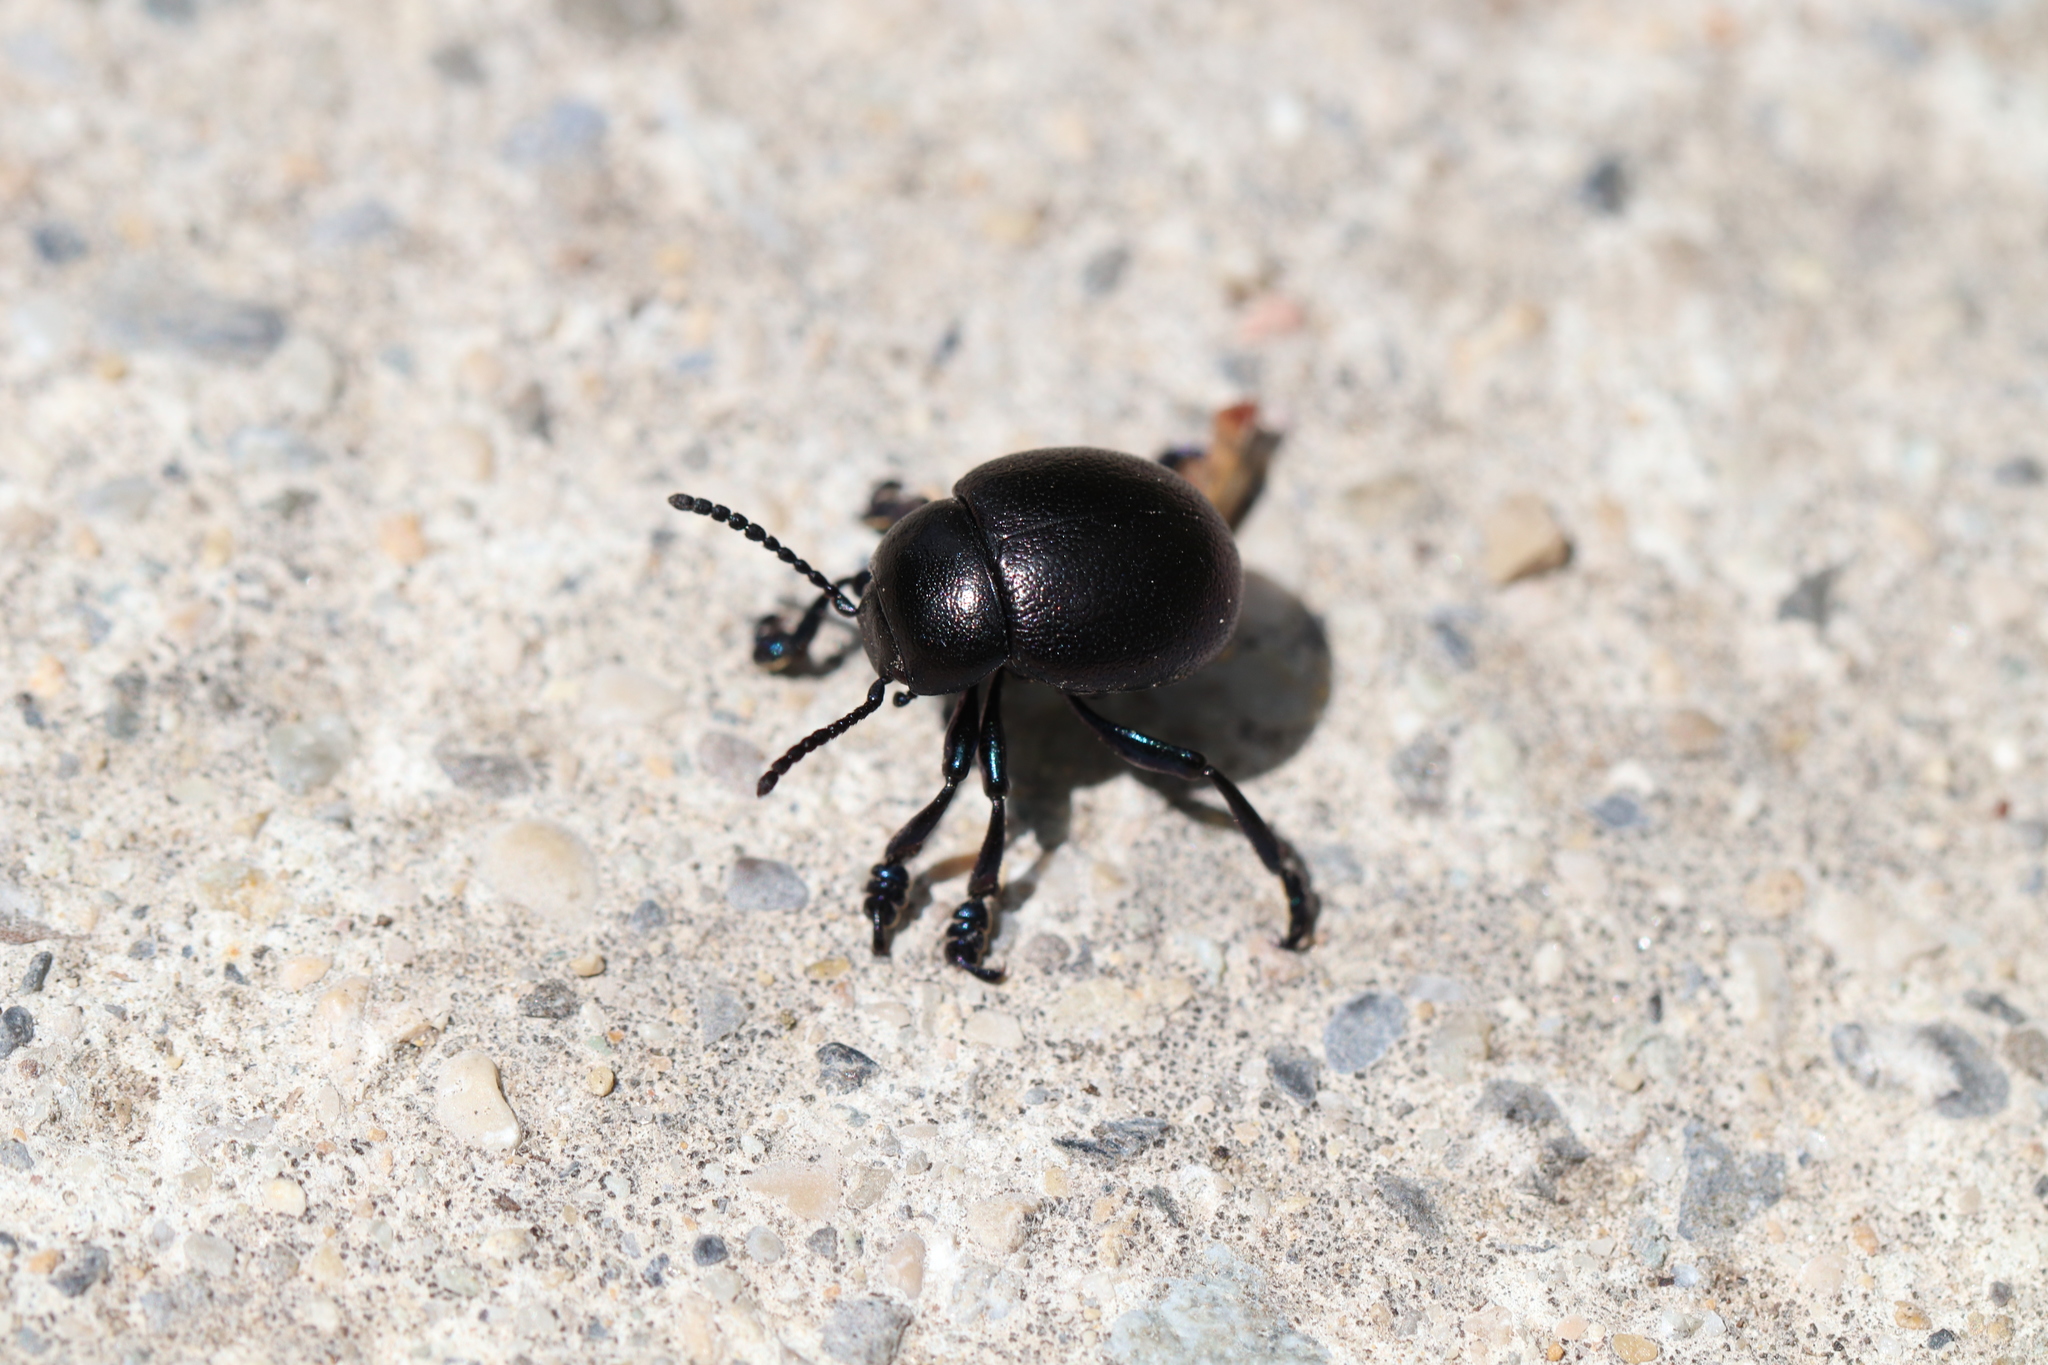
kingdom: Animalia
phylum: Arthropoda
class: Insecta
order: Coleoptera
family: Chrysomelidae
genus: Timarcha
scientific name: Timarcha goettingensis
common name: Small bloody-nosed beetle
